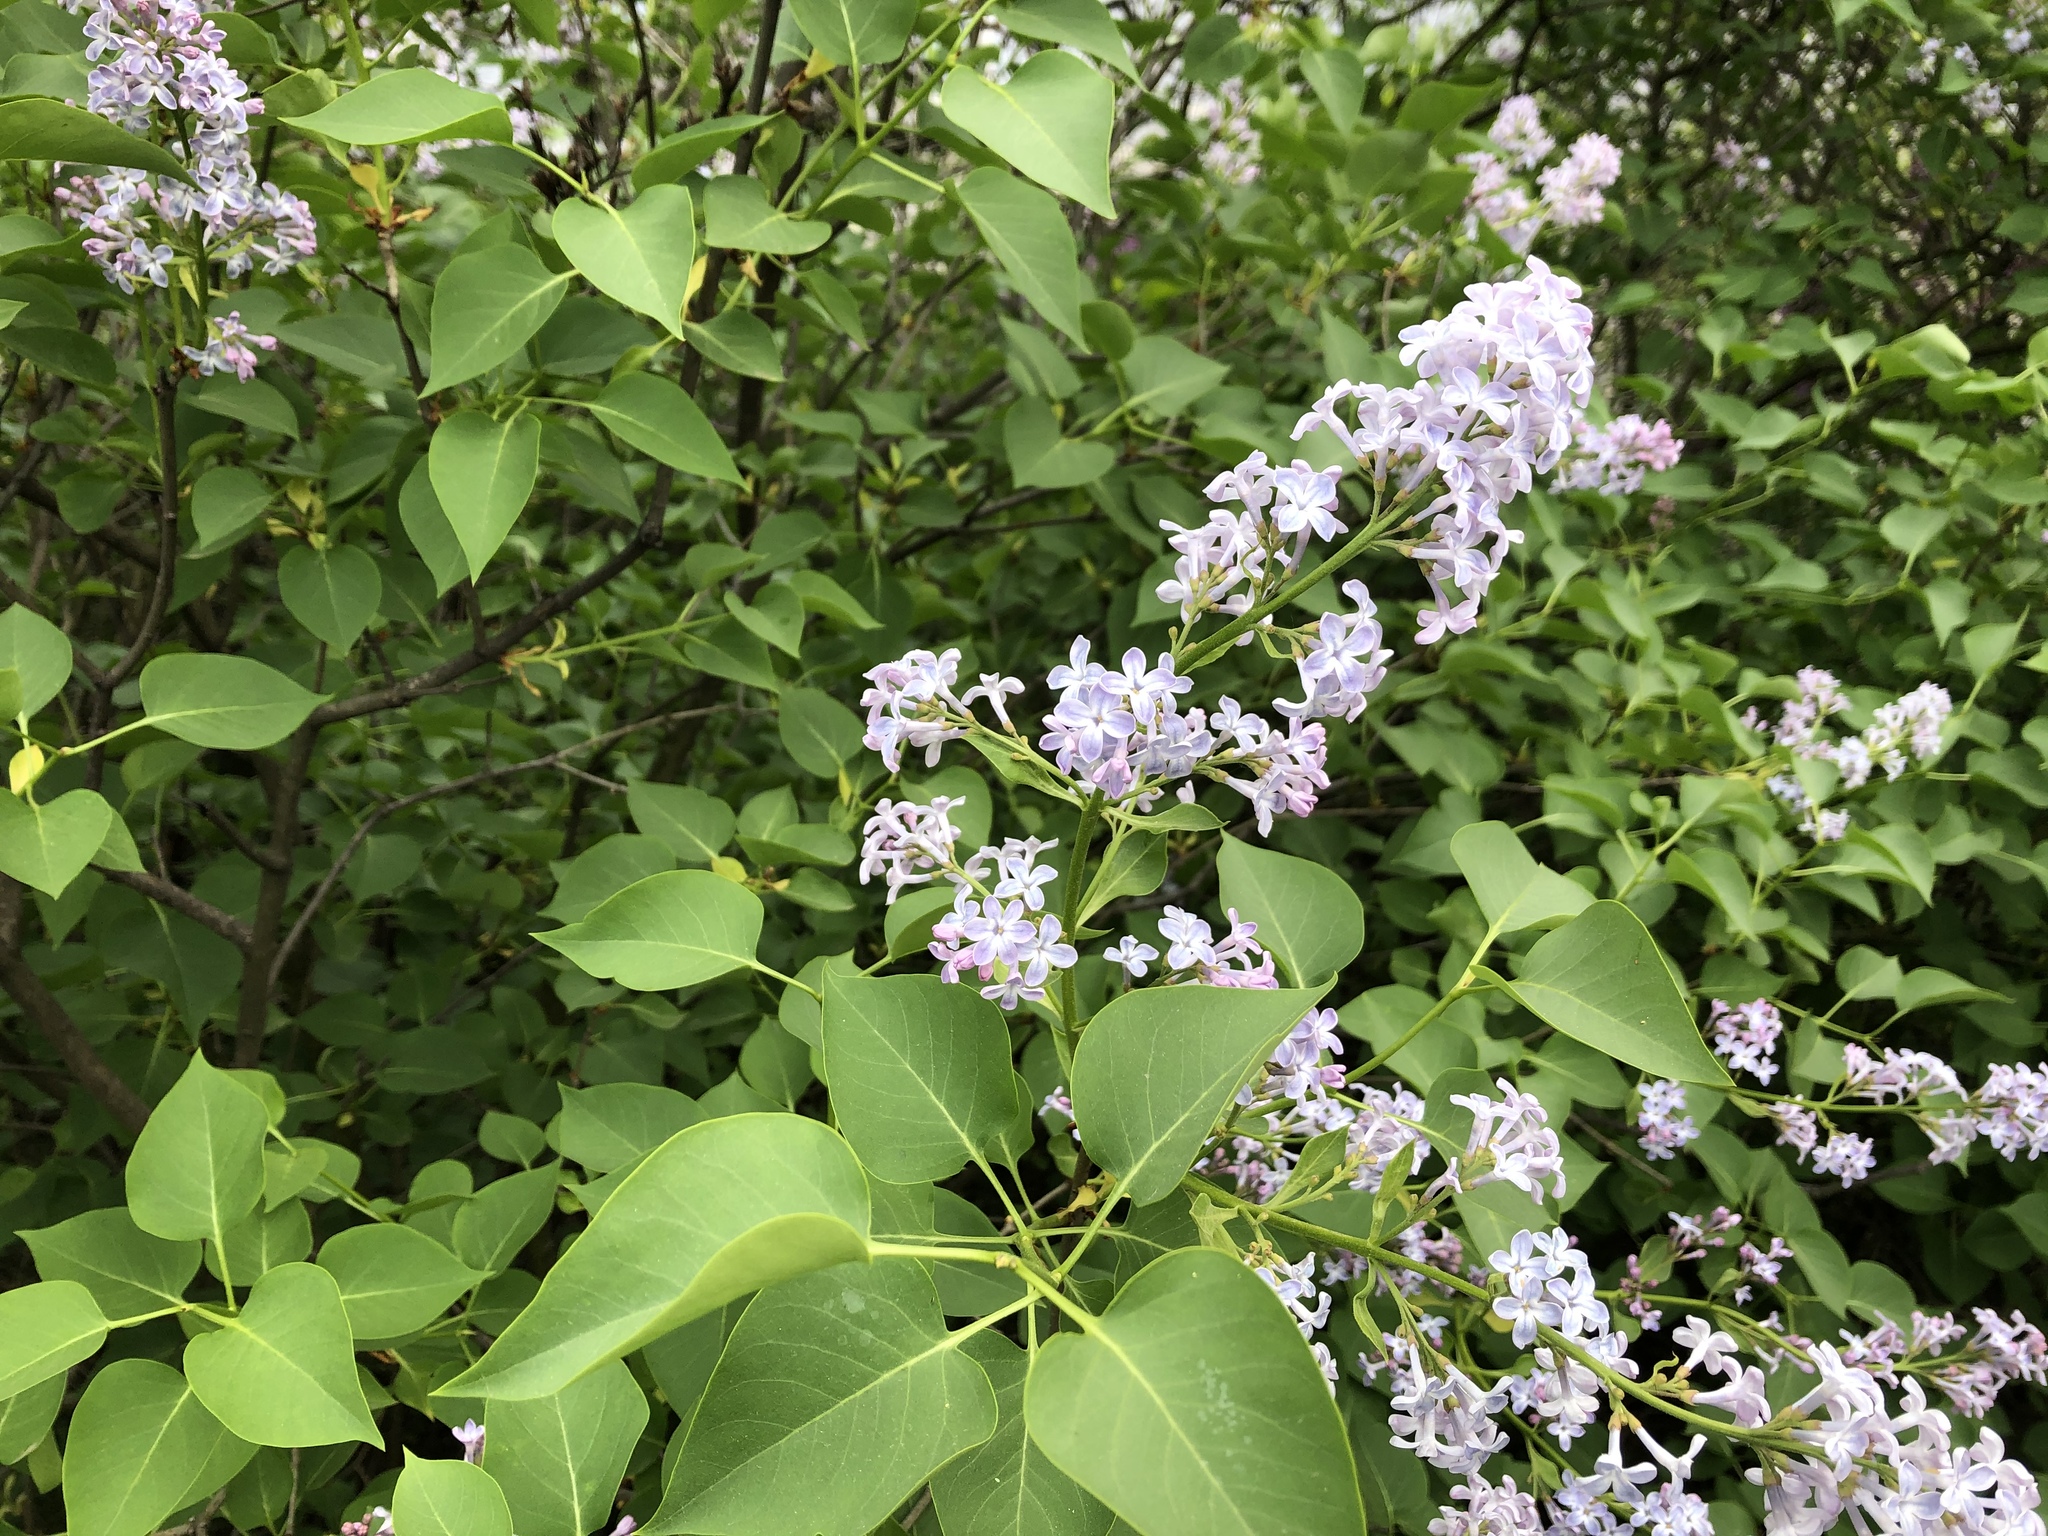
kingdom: Plantae
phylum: Tracheophyta
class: Magnoliopsida
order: Lamiales
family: Oleaceae
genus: Syringa
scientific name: Syringa vulgaris
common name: Common lilac
